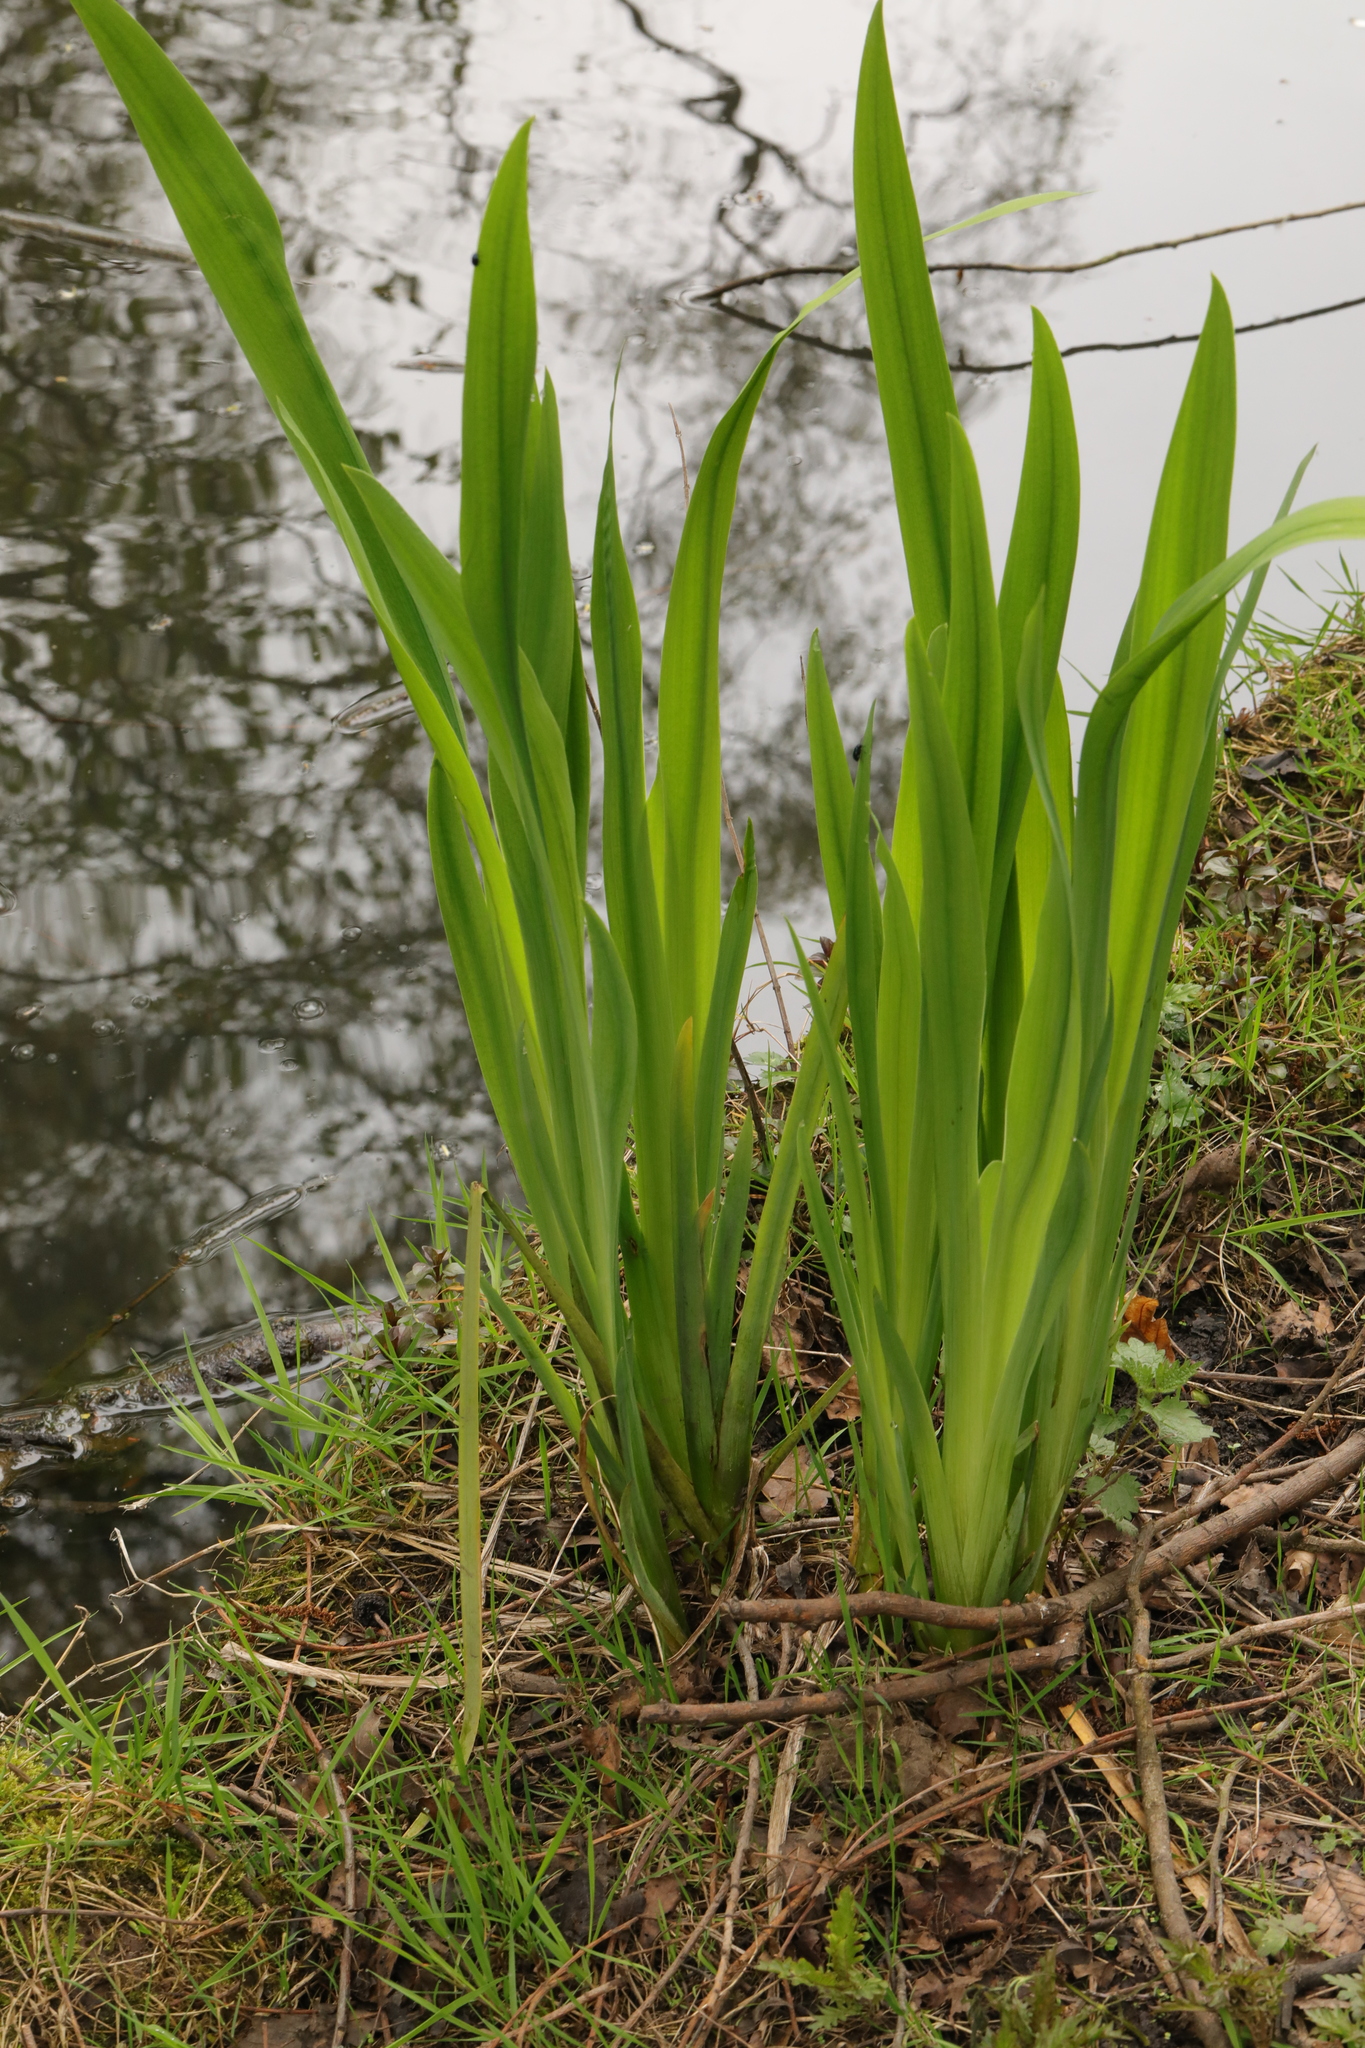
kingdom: Plantae
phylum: Tracheophyta
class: Liliopsida
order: Asparagales
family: Iridaceae
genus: Iris
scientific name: Iris pseudacorus
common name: Yellow flag
